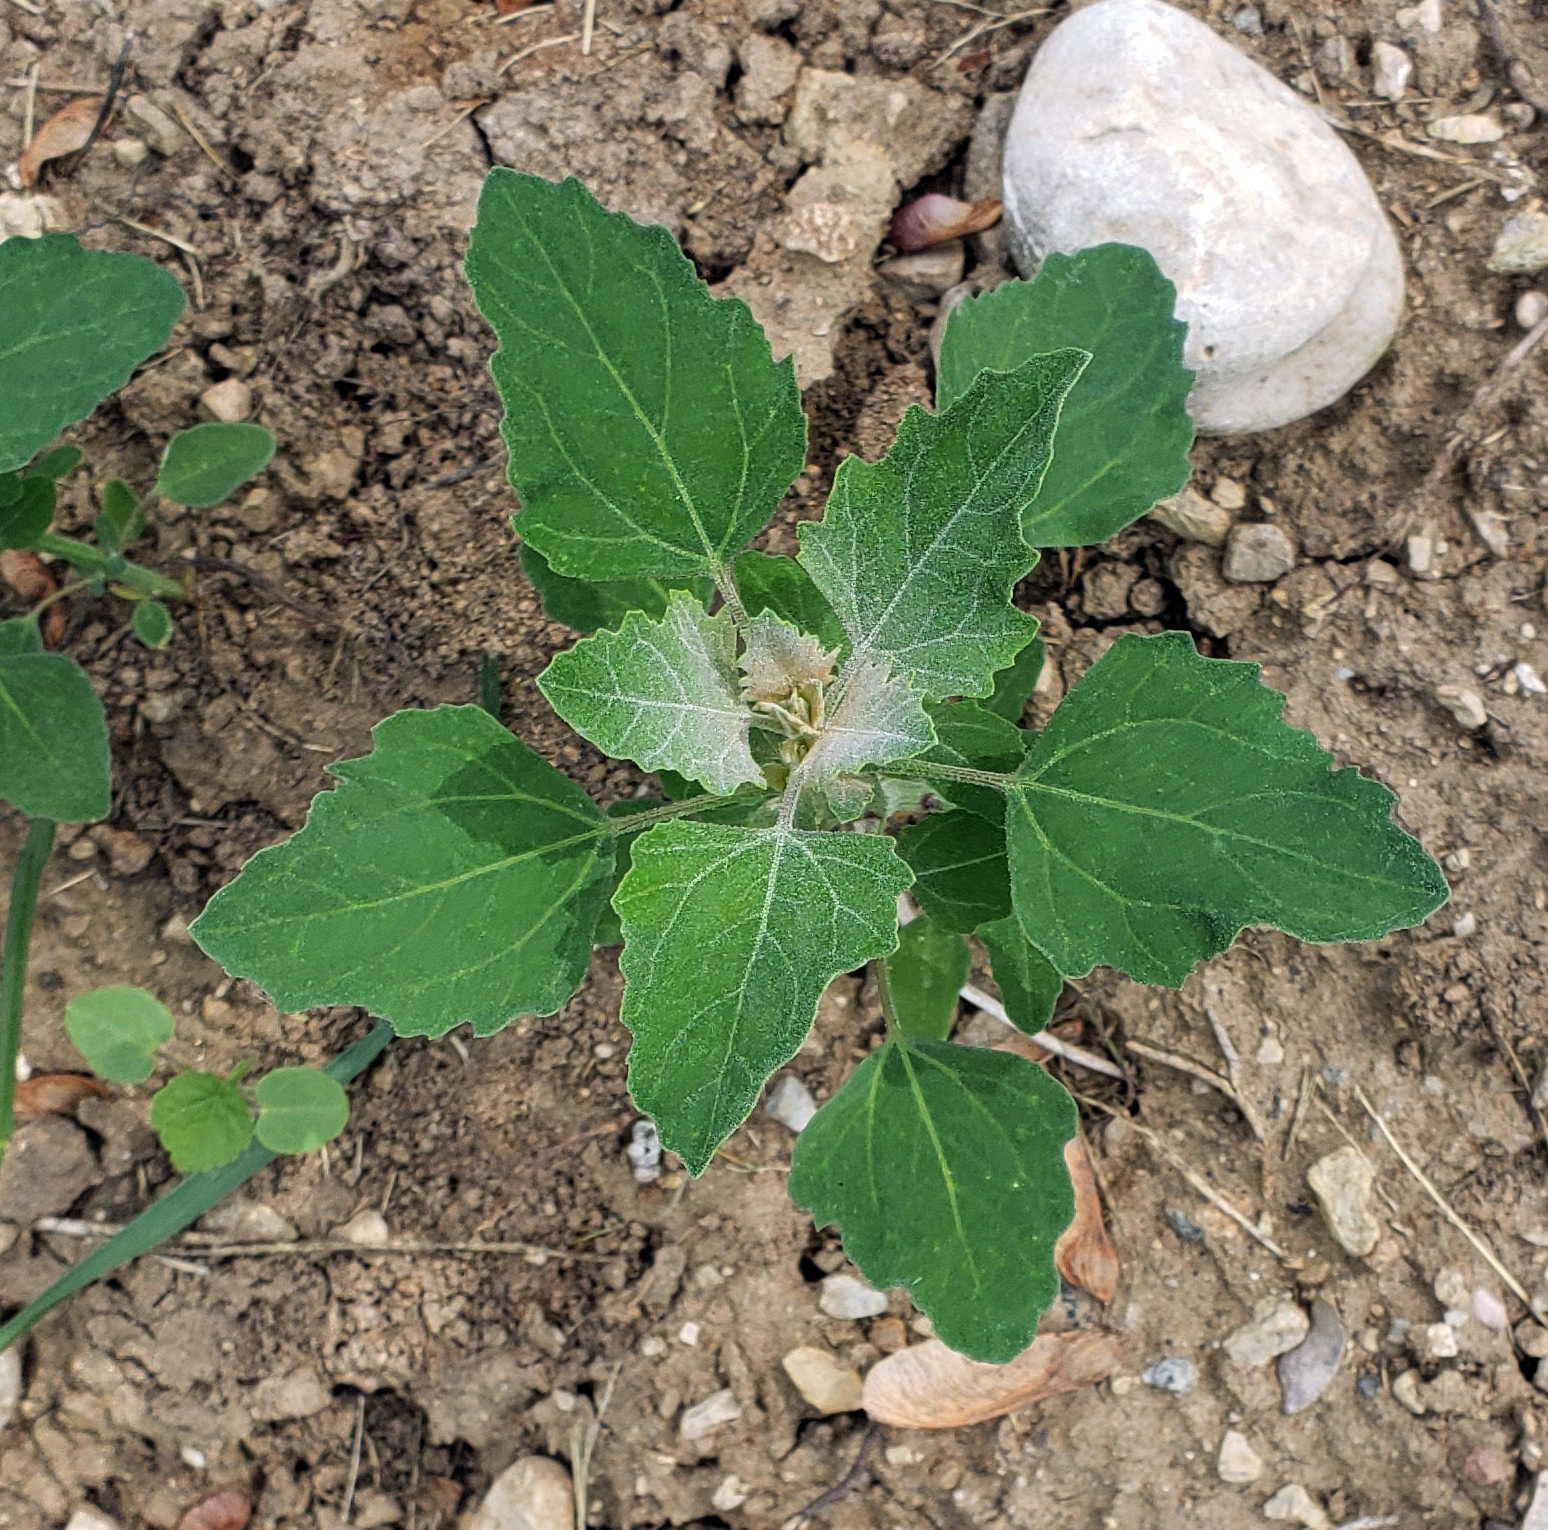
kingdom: Plantae
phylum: Tracheophyta
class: Magnoliopsida
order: Caryophyllales
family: Amaranthaceae
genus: Chenopodium
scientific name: Chenopodium album
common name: Fat-hen
